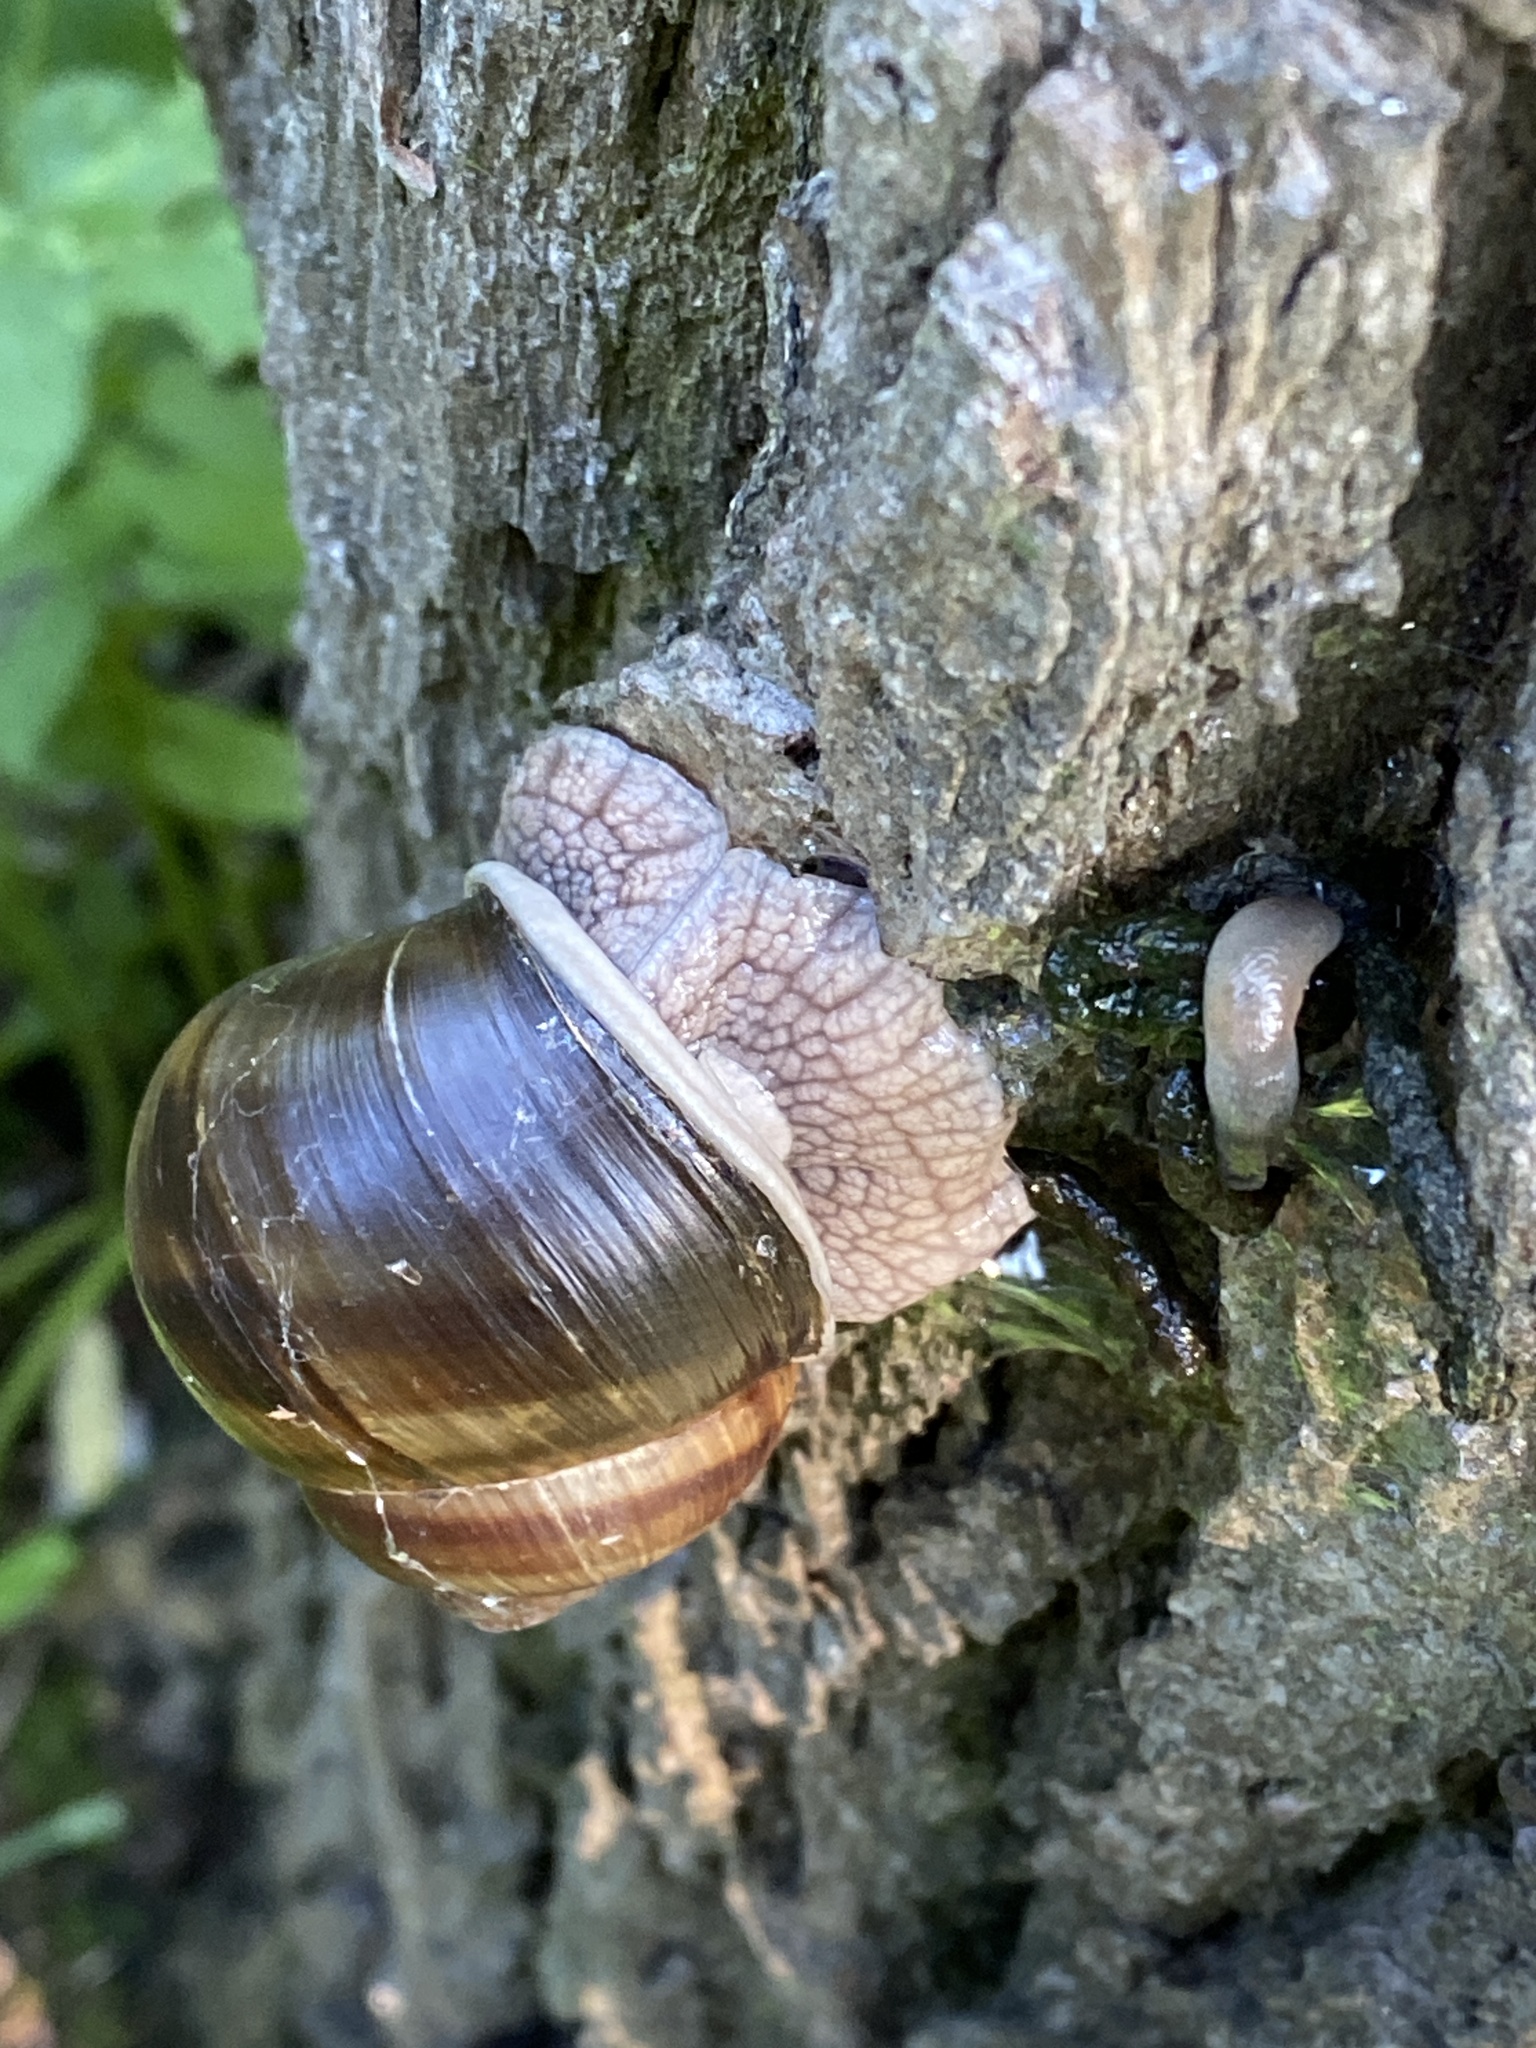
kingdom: Animalia
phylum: Mollusca
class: Gastropoda
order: Stylommatophora
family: Helicidae
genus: Helix
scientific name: Helix pomatia
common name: Roman snail
